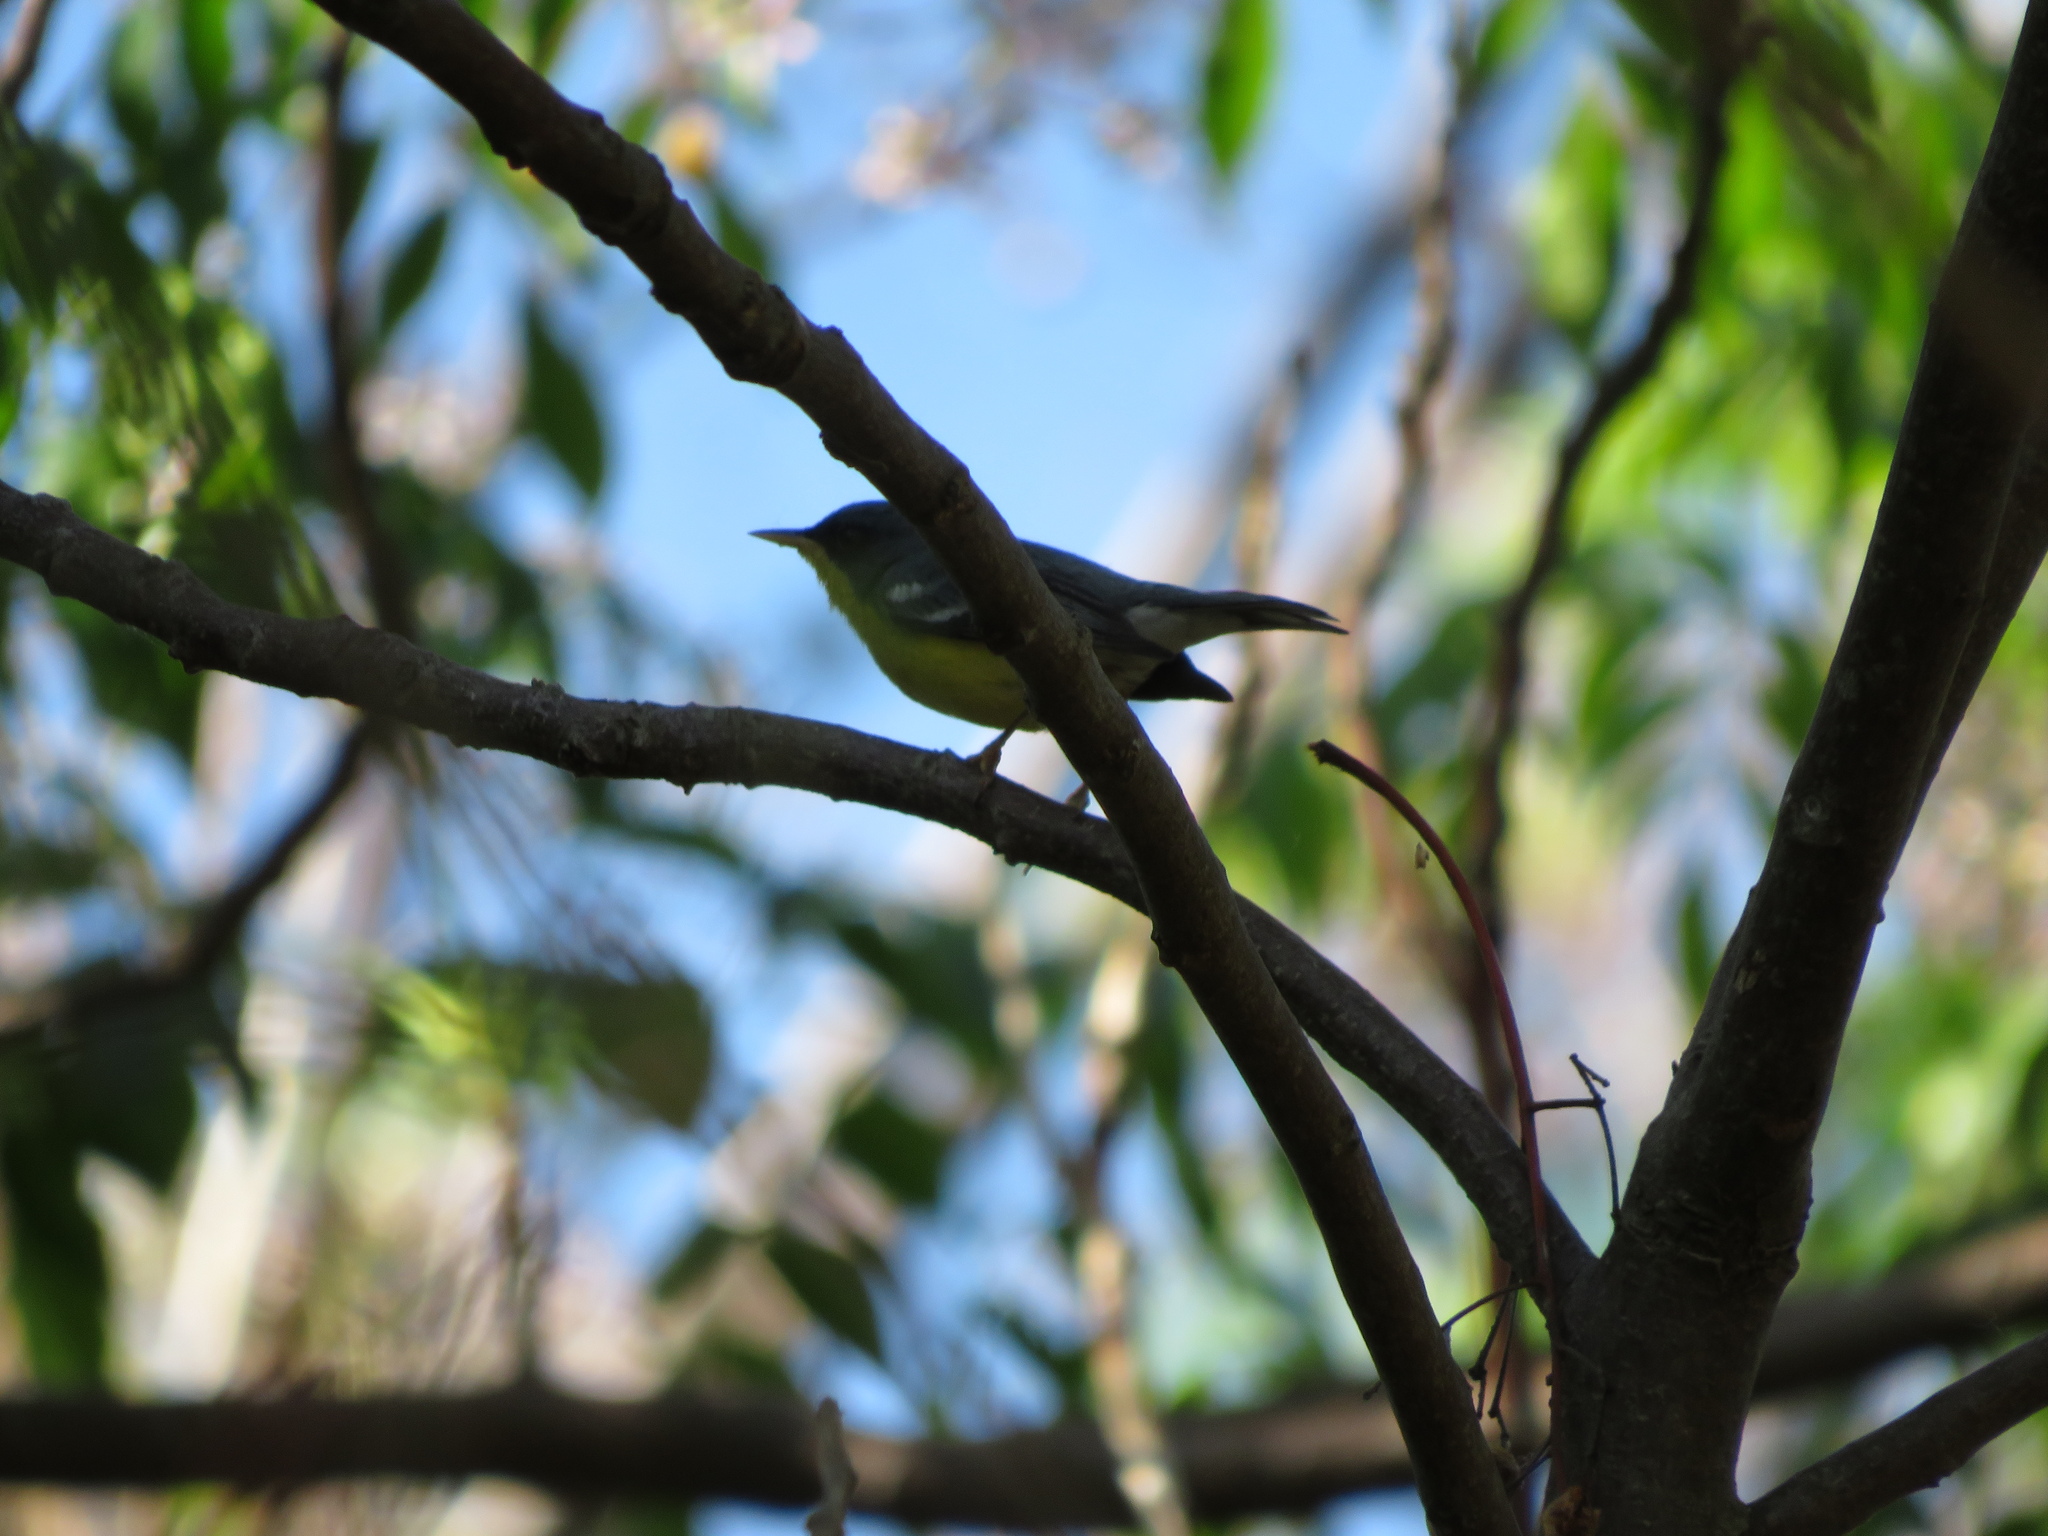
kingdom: Animalia
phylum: Chordata
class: Aves
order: Passeriformes
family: Parulidae
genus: Setophaga
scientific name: Setophaga pitiayumi
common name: Tropical parula
